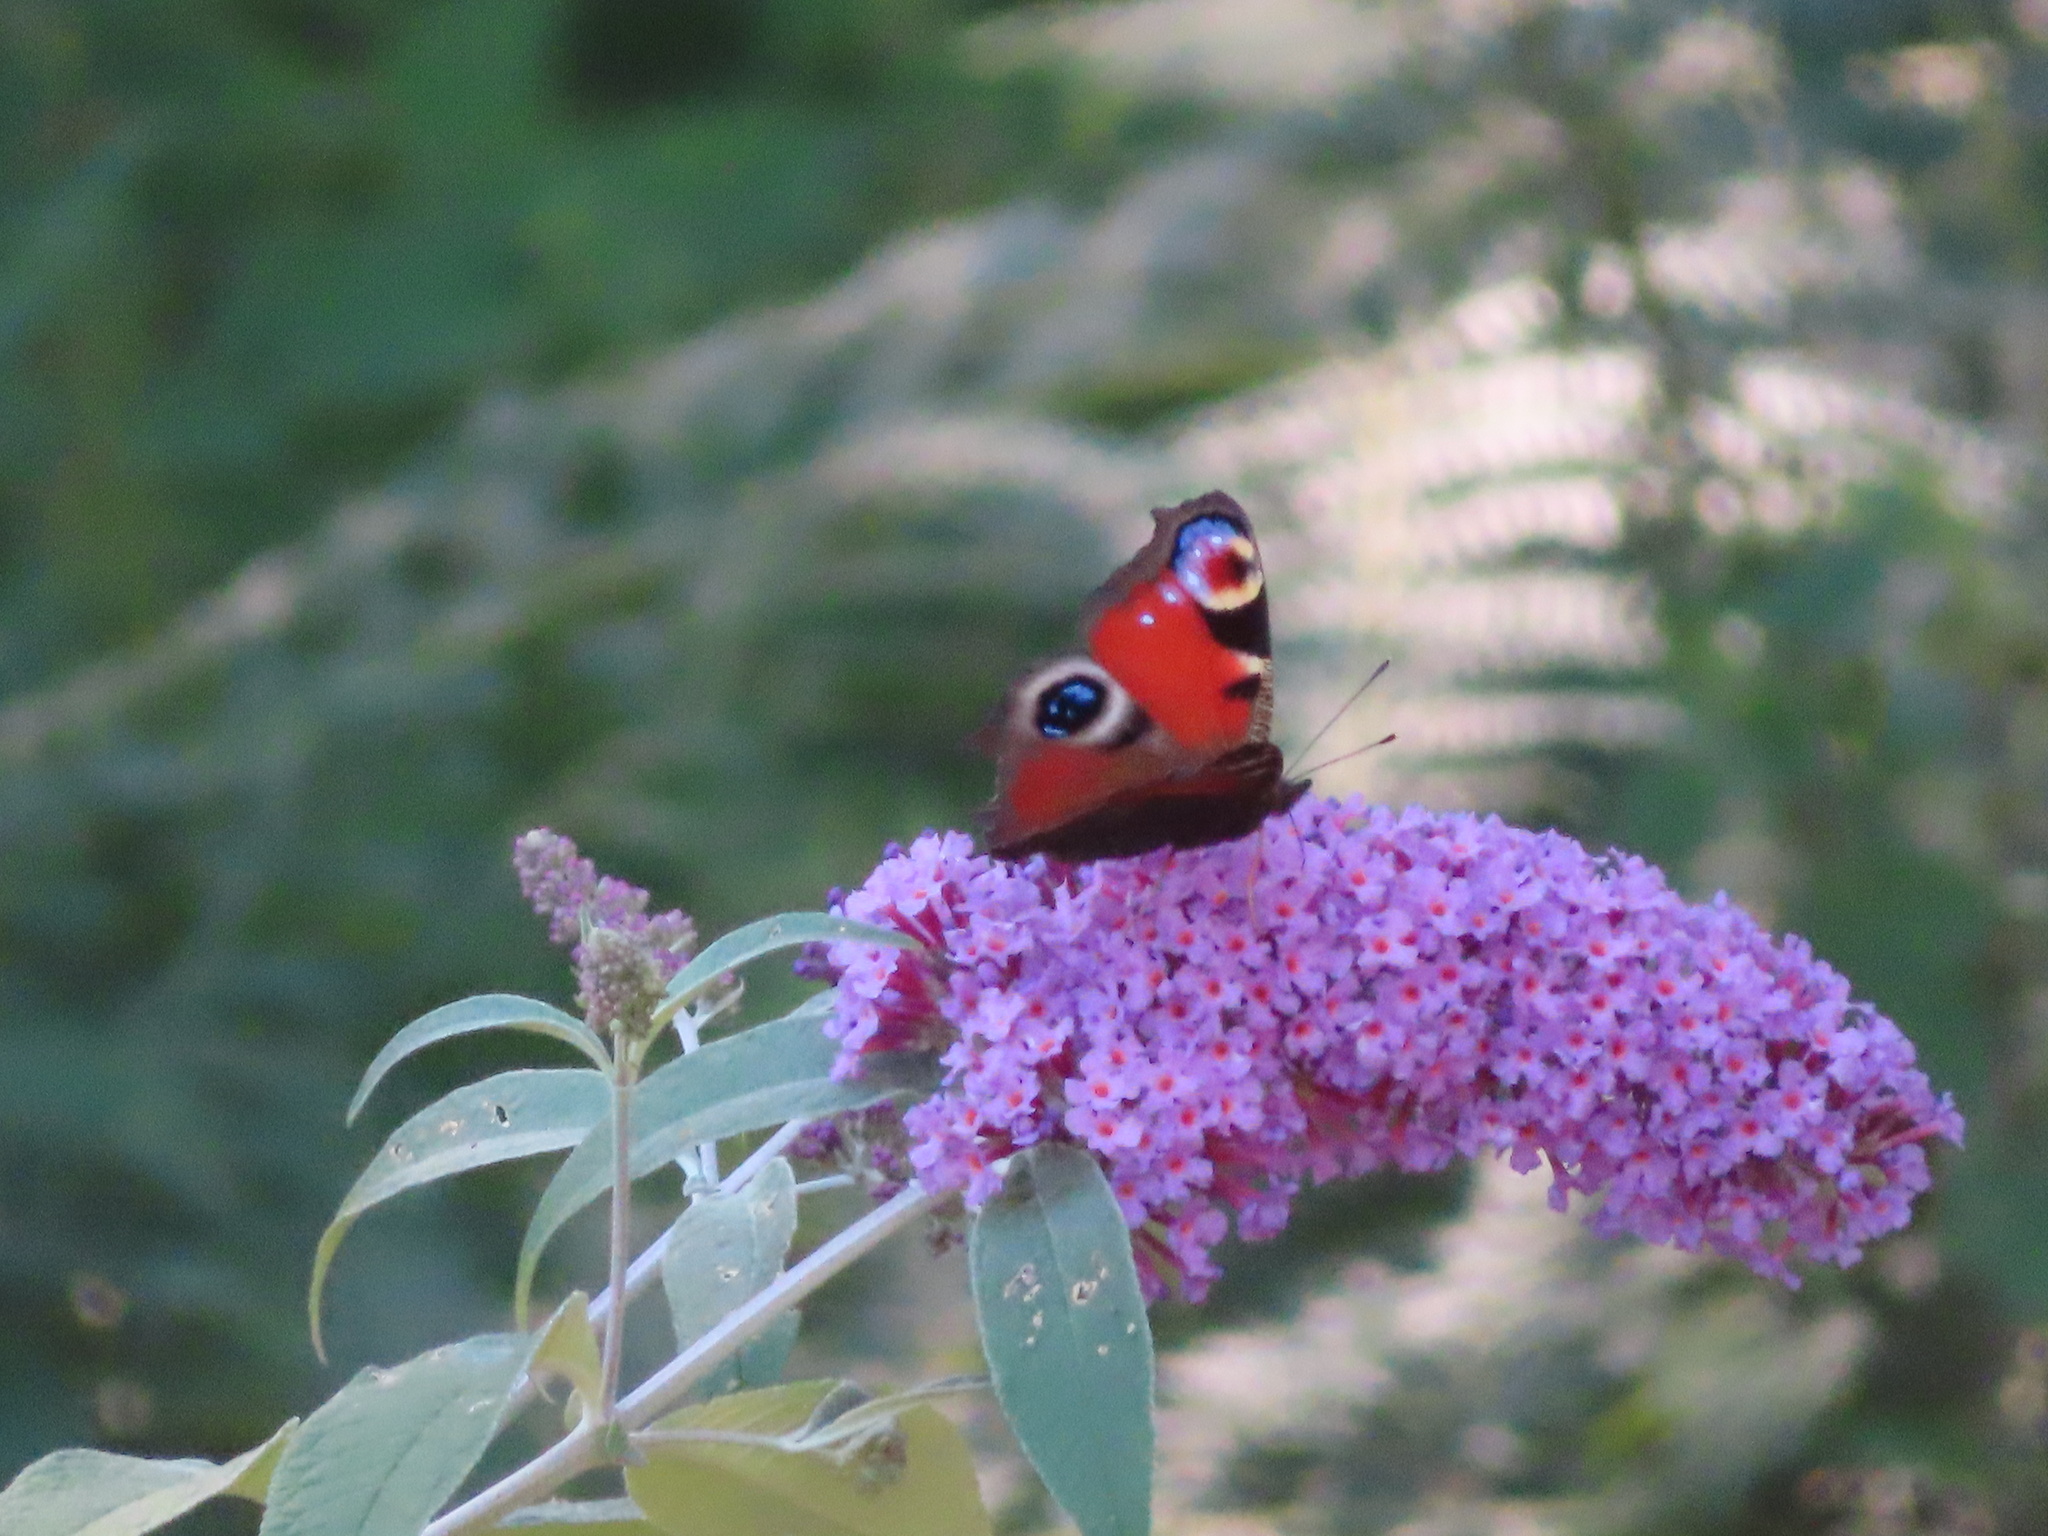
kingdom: Animalia
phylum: Arthropoda
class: Insecta
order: Lepidoptera
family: Nymphalidae
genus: Aglais
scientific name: Aglais io
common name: Peacock
